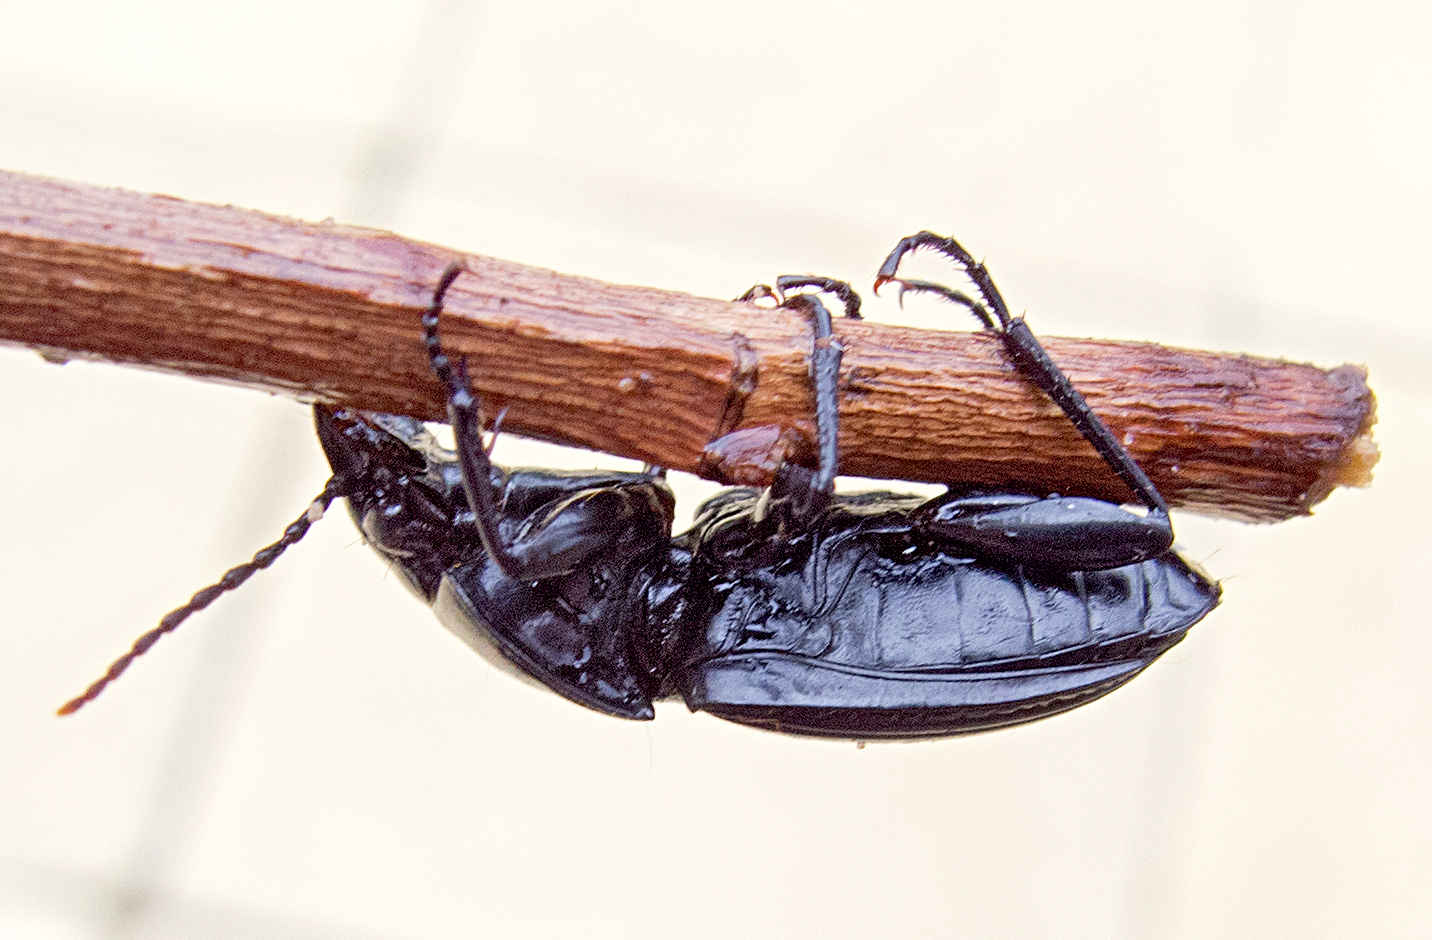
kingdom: Animalia
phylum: Arthropoda
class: Insecta
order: Coleoptera
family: Carabidae
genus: Pterostichus
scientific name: Pterostichus melas
